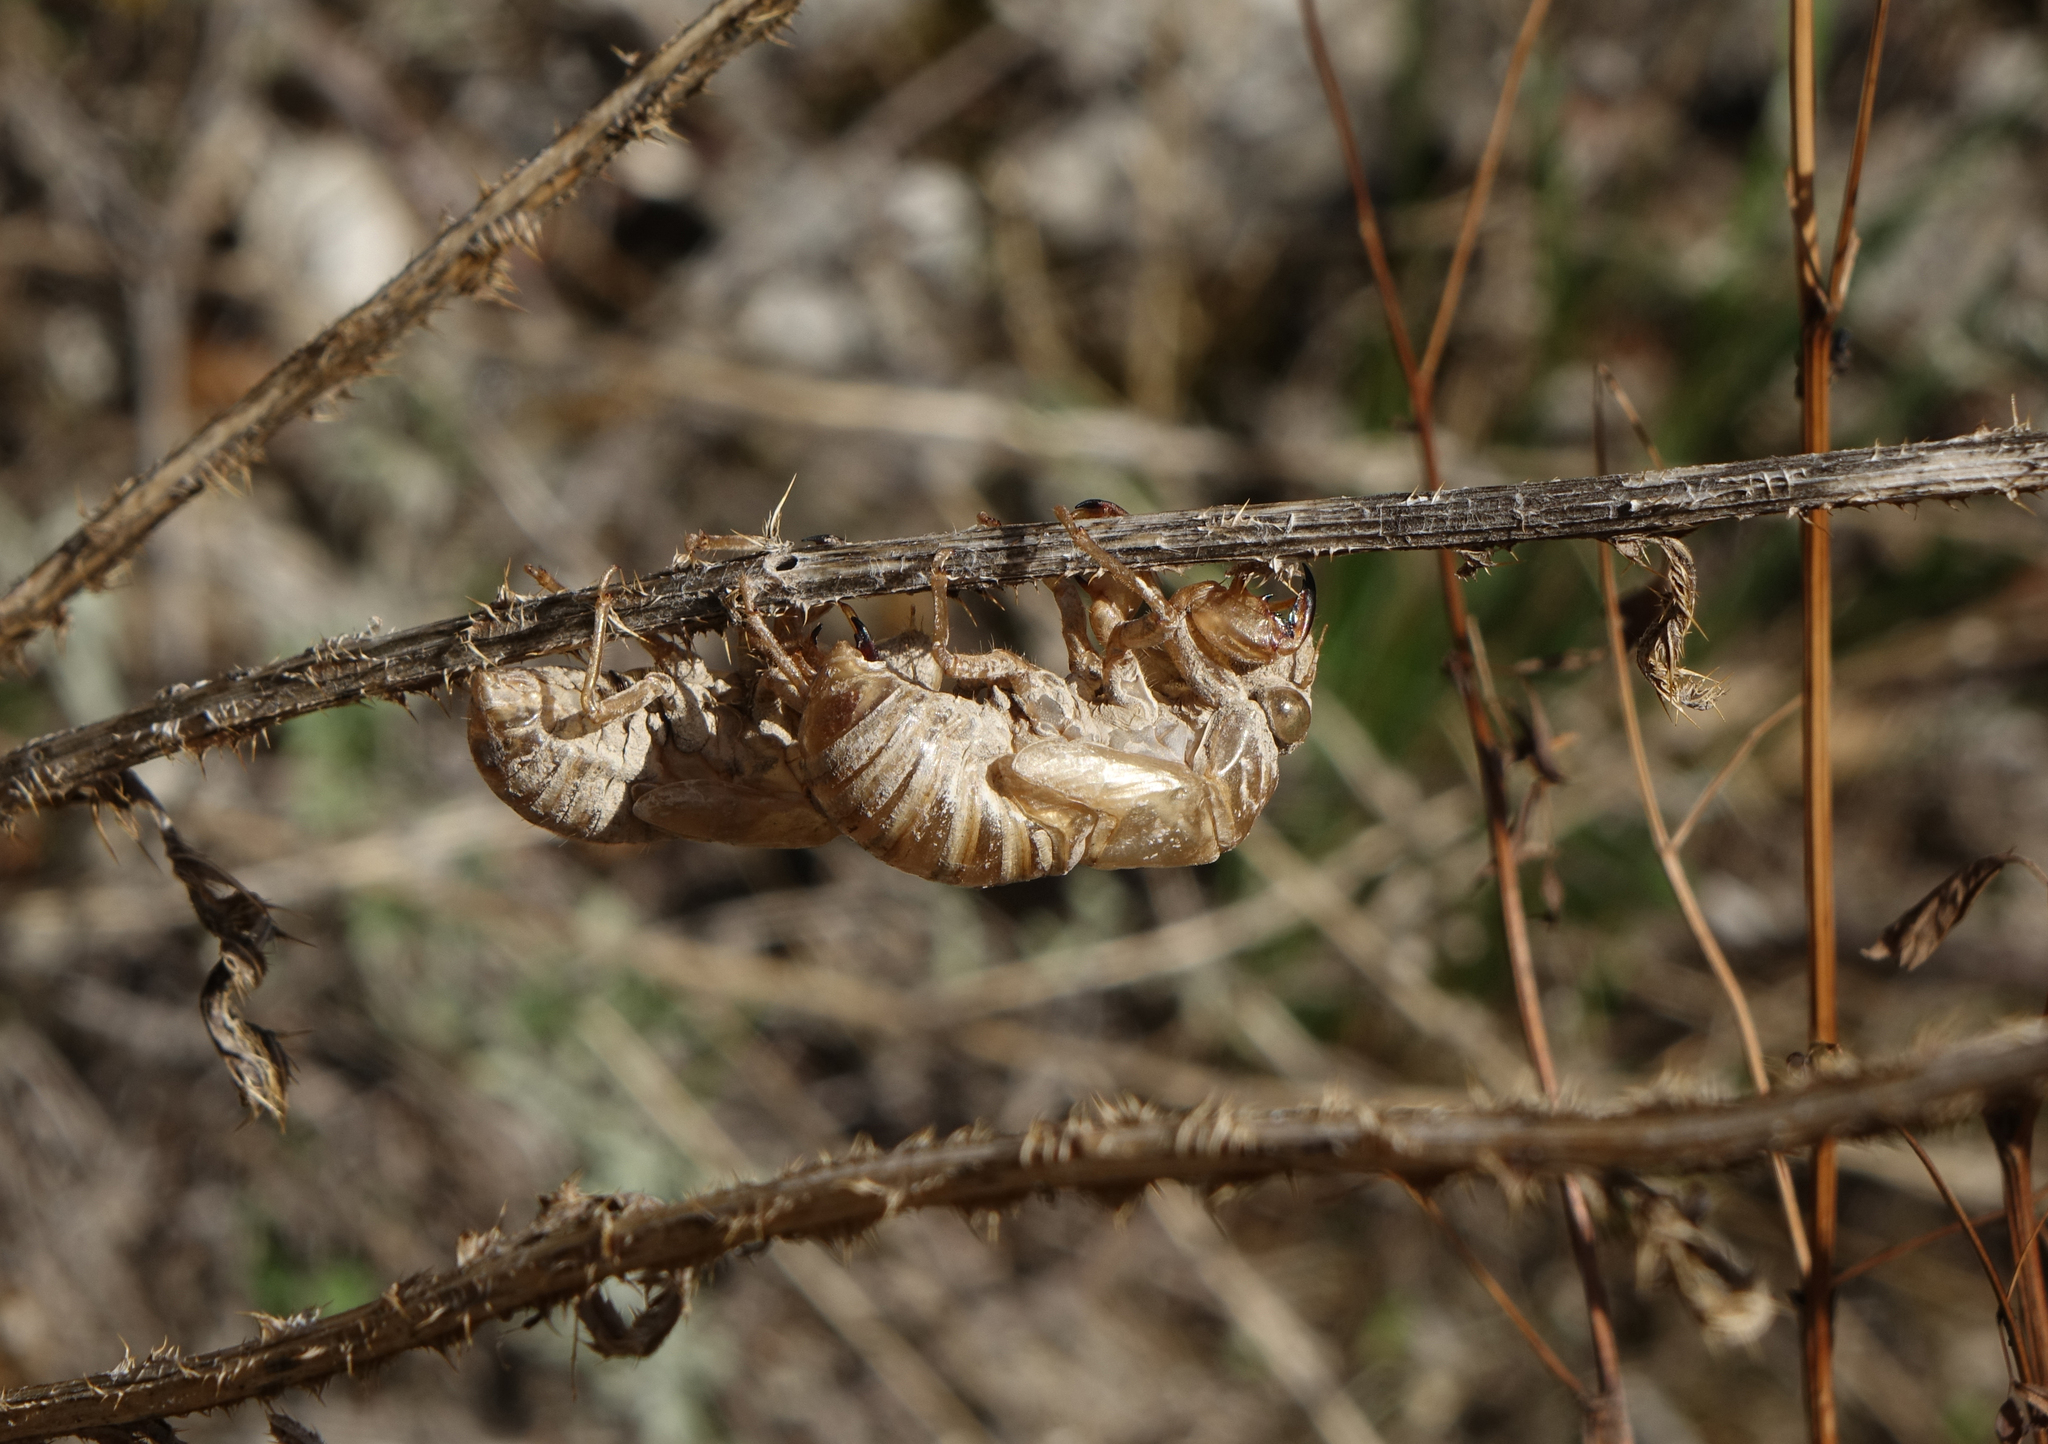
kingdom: Animalia
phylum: Arthropoda
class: Insecta
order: Hemiptera
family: Cicadidae
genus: Lyristes
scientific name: Lyristes plebejus
